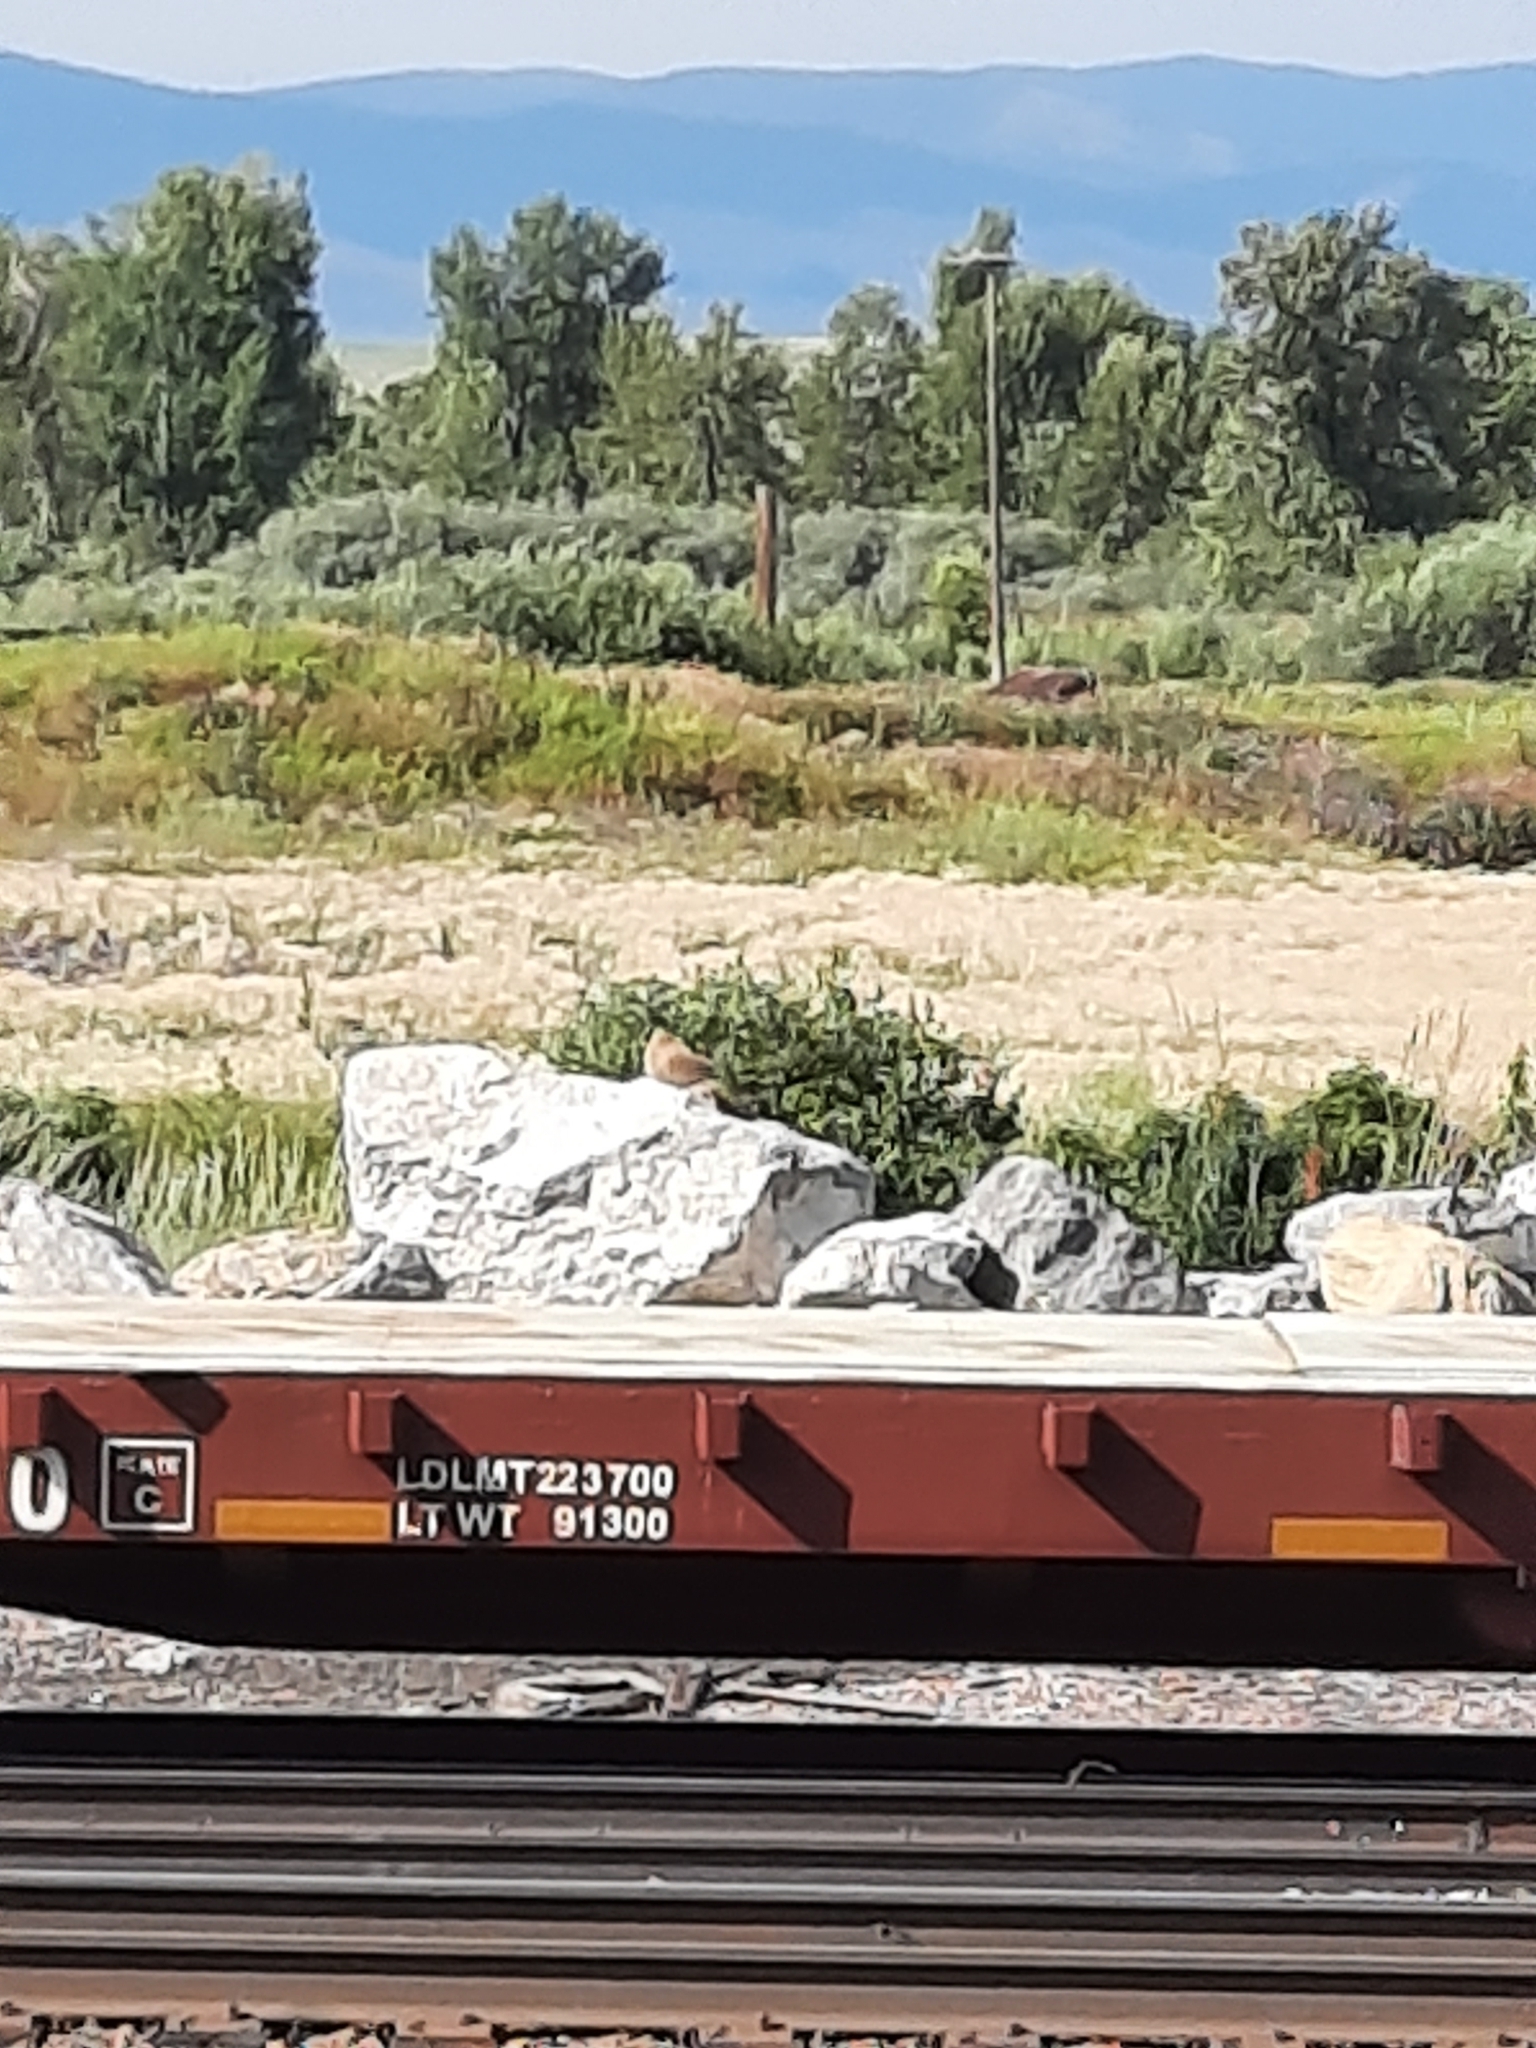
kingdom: Animalia
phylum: Chordata
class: Mammalia
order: Rodentia
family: Sciuridae
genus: Marmota
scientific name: Marmota flaviventris
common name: Yellow-bellied marmot
